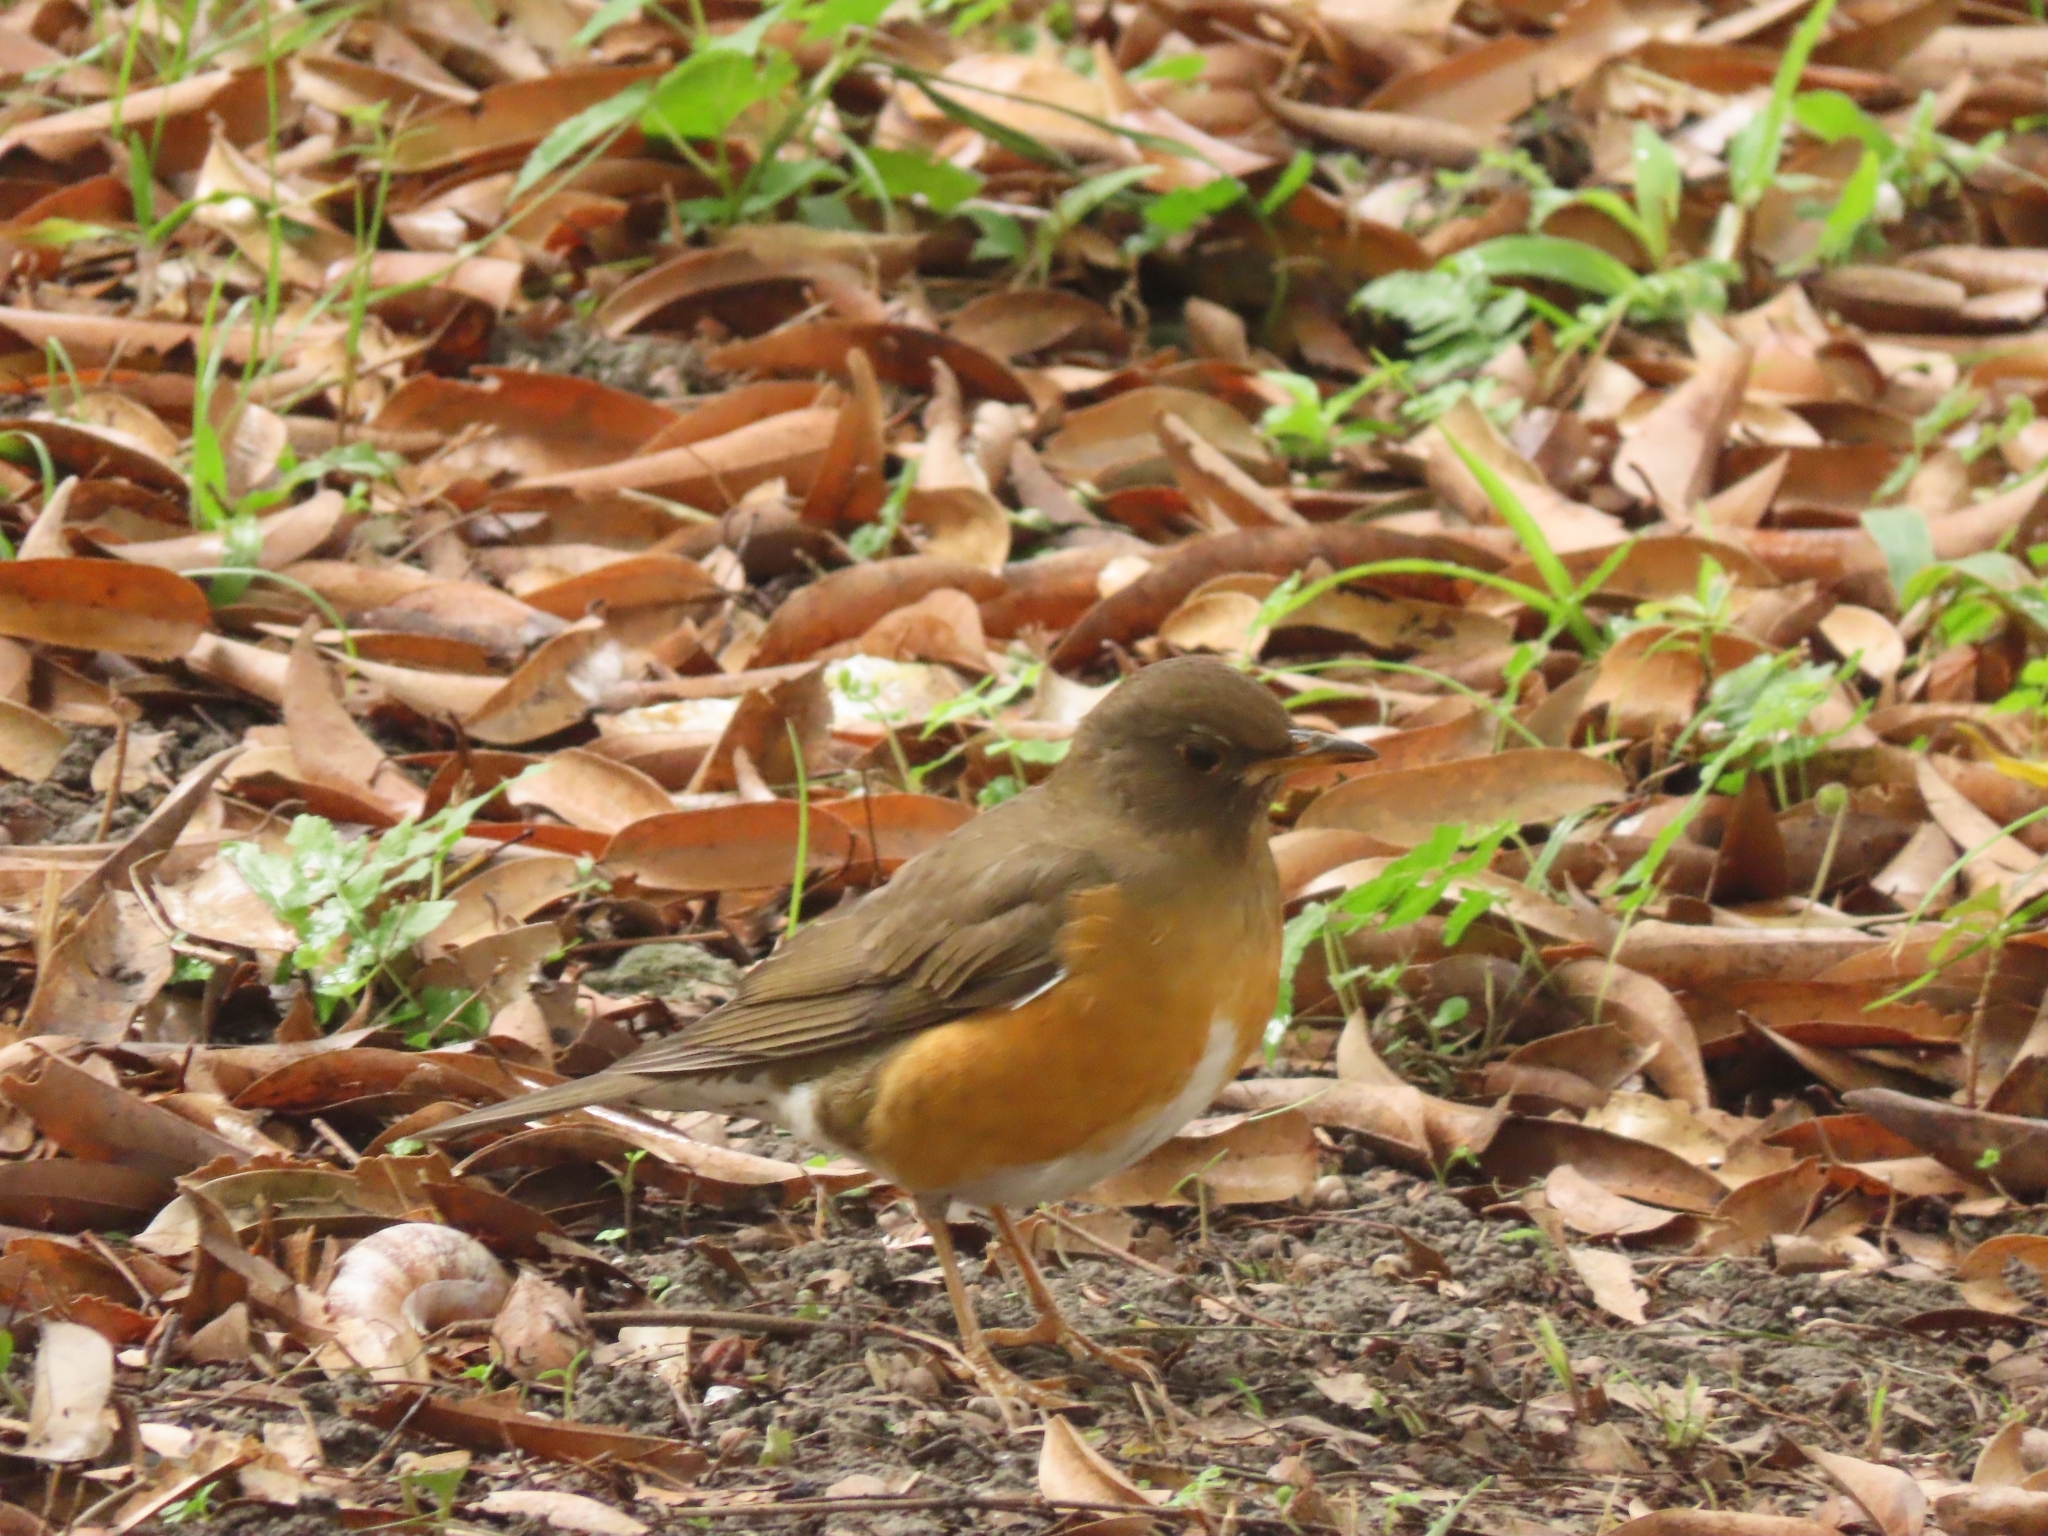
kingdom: Animalia
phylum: Chordata
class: Aves
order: Passeriformes
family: Turdidae
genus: Turdus
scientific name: Turdus chrysolaus
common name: Brown-headed thrush
